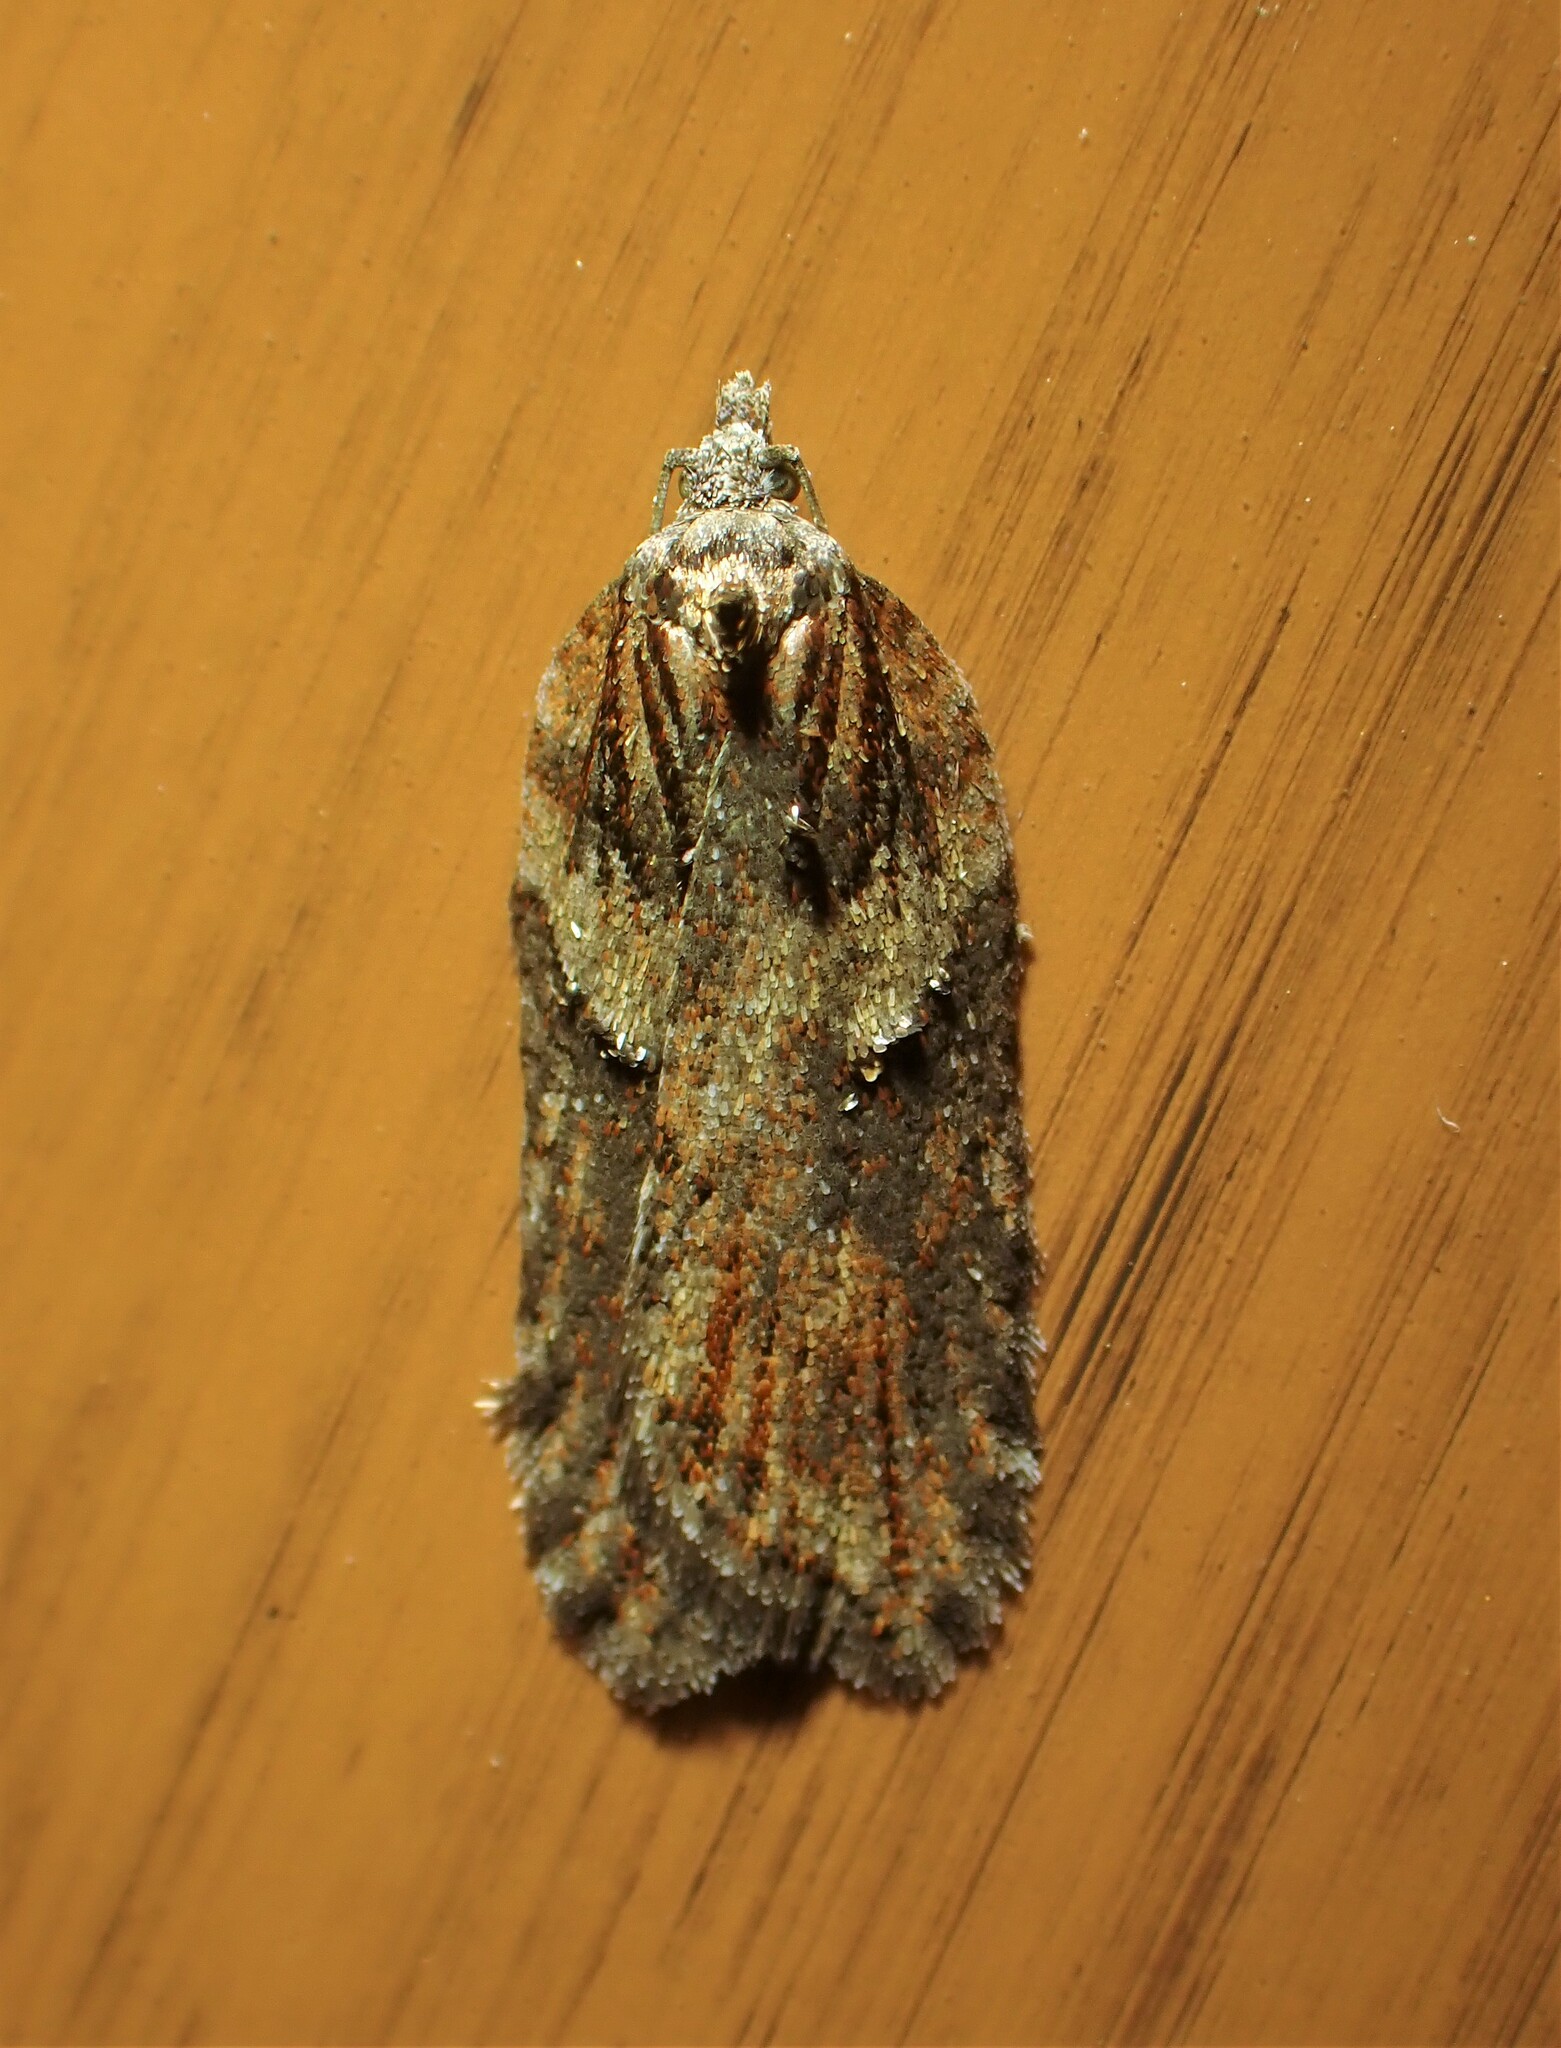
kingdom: Animalia
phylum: Arthropoda
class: Insecta
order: Lepidoptera
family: Tortricidae
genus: Acleris
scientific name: Acleris hastiana
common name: Sallow button
